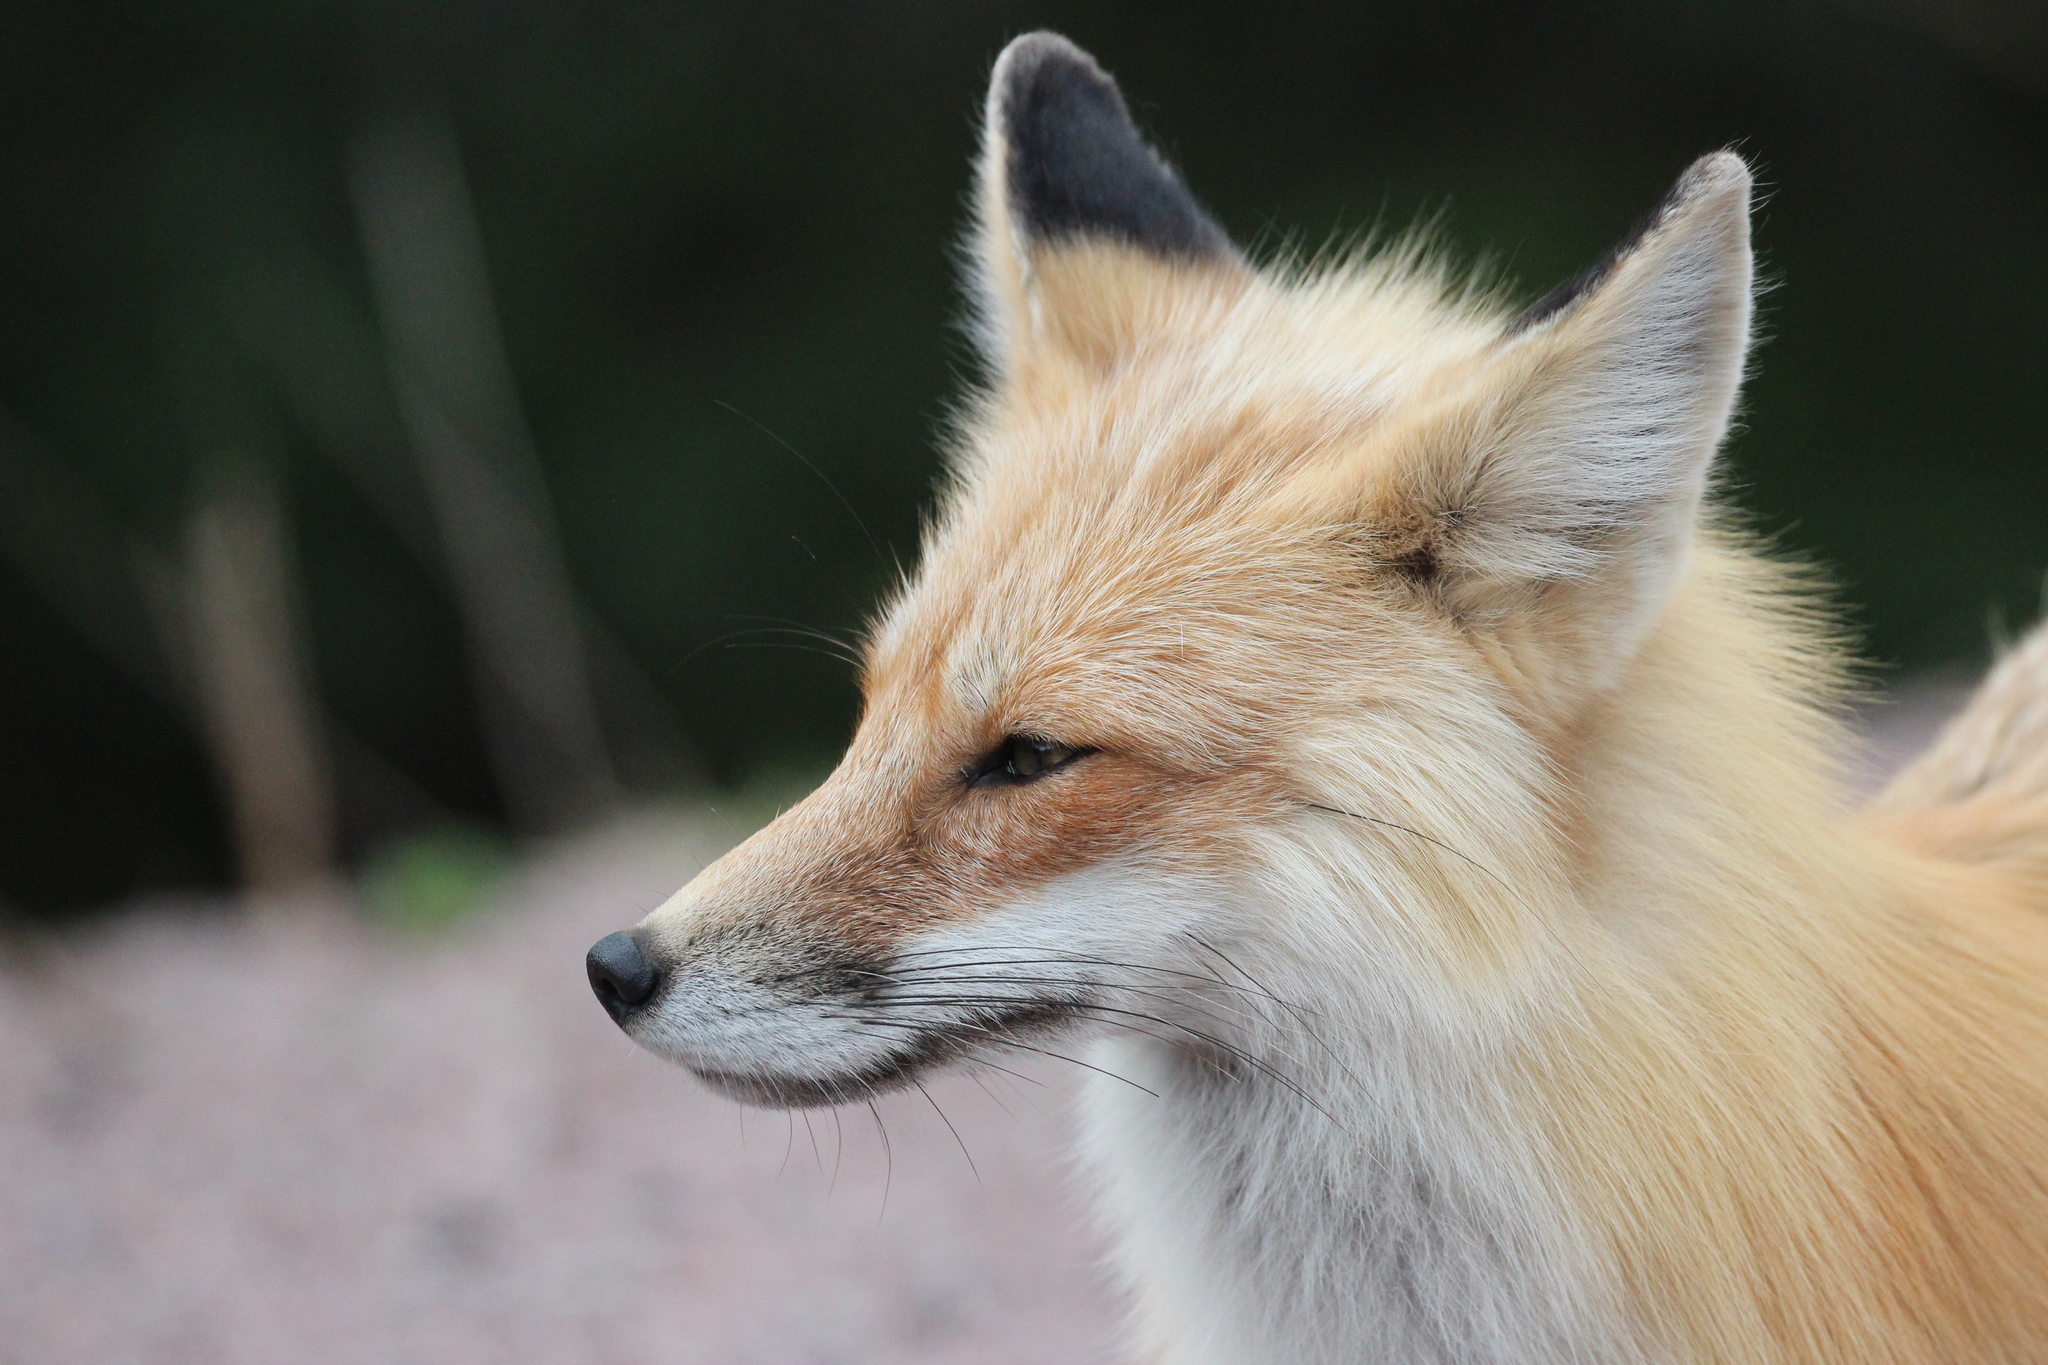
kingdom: Animalia
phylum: Chordata
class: Mammalia
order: Carnivora
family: Canidae
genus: Vulpes
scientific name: Vulpes vulpes
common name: Red fox
